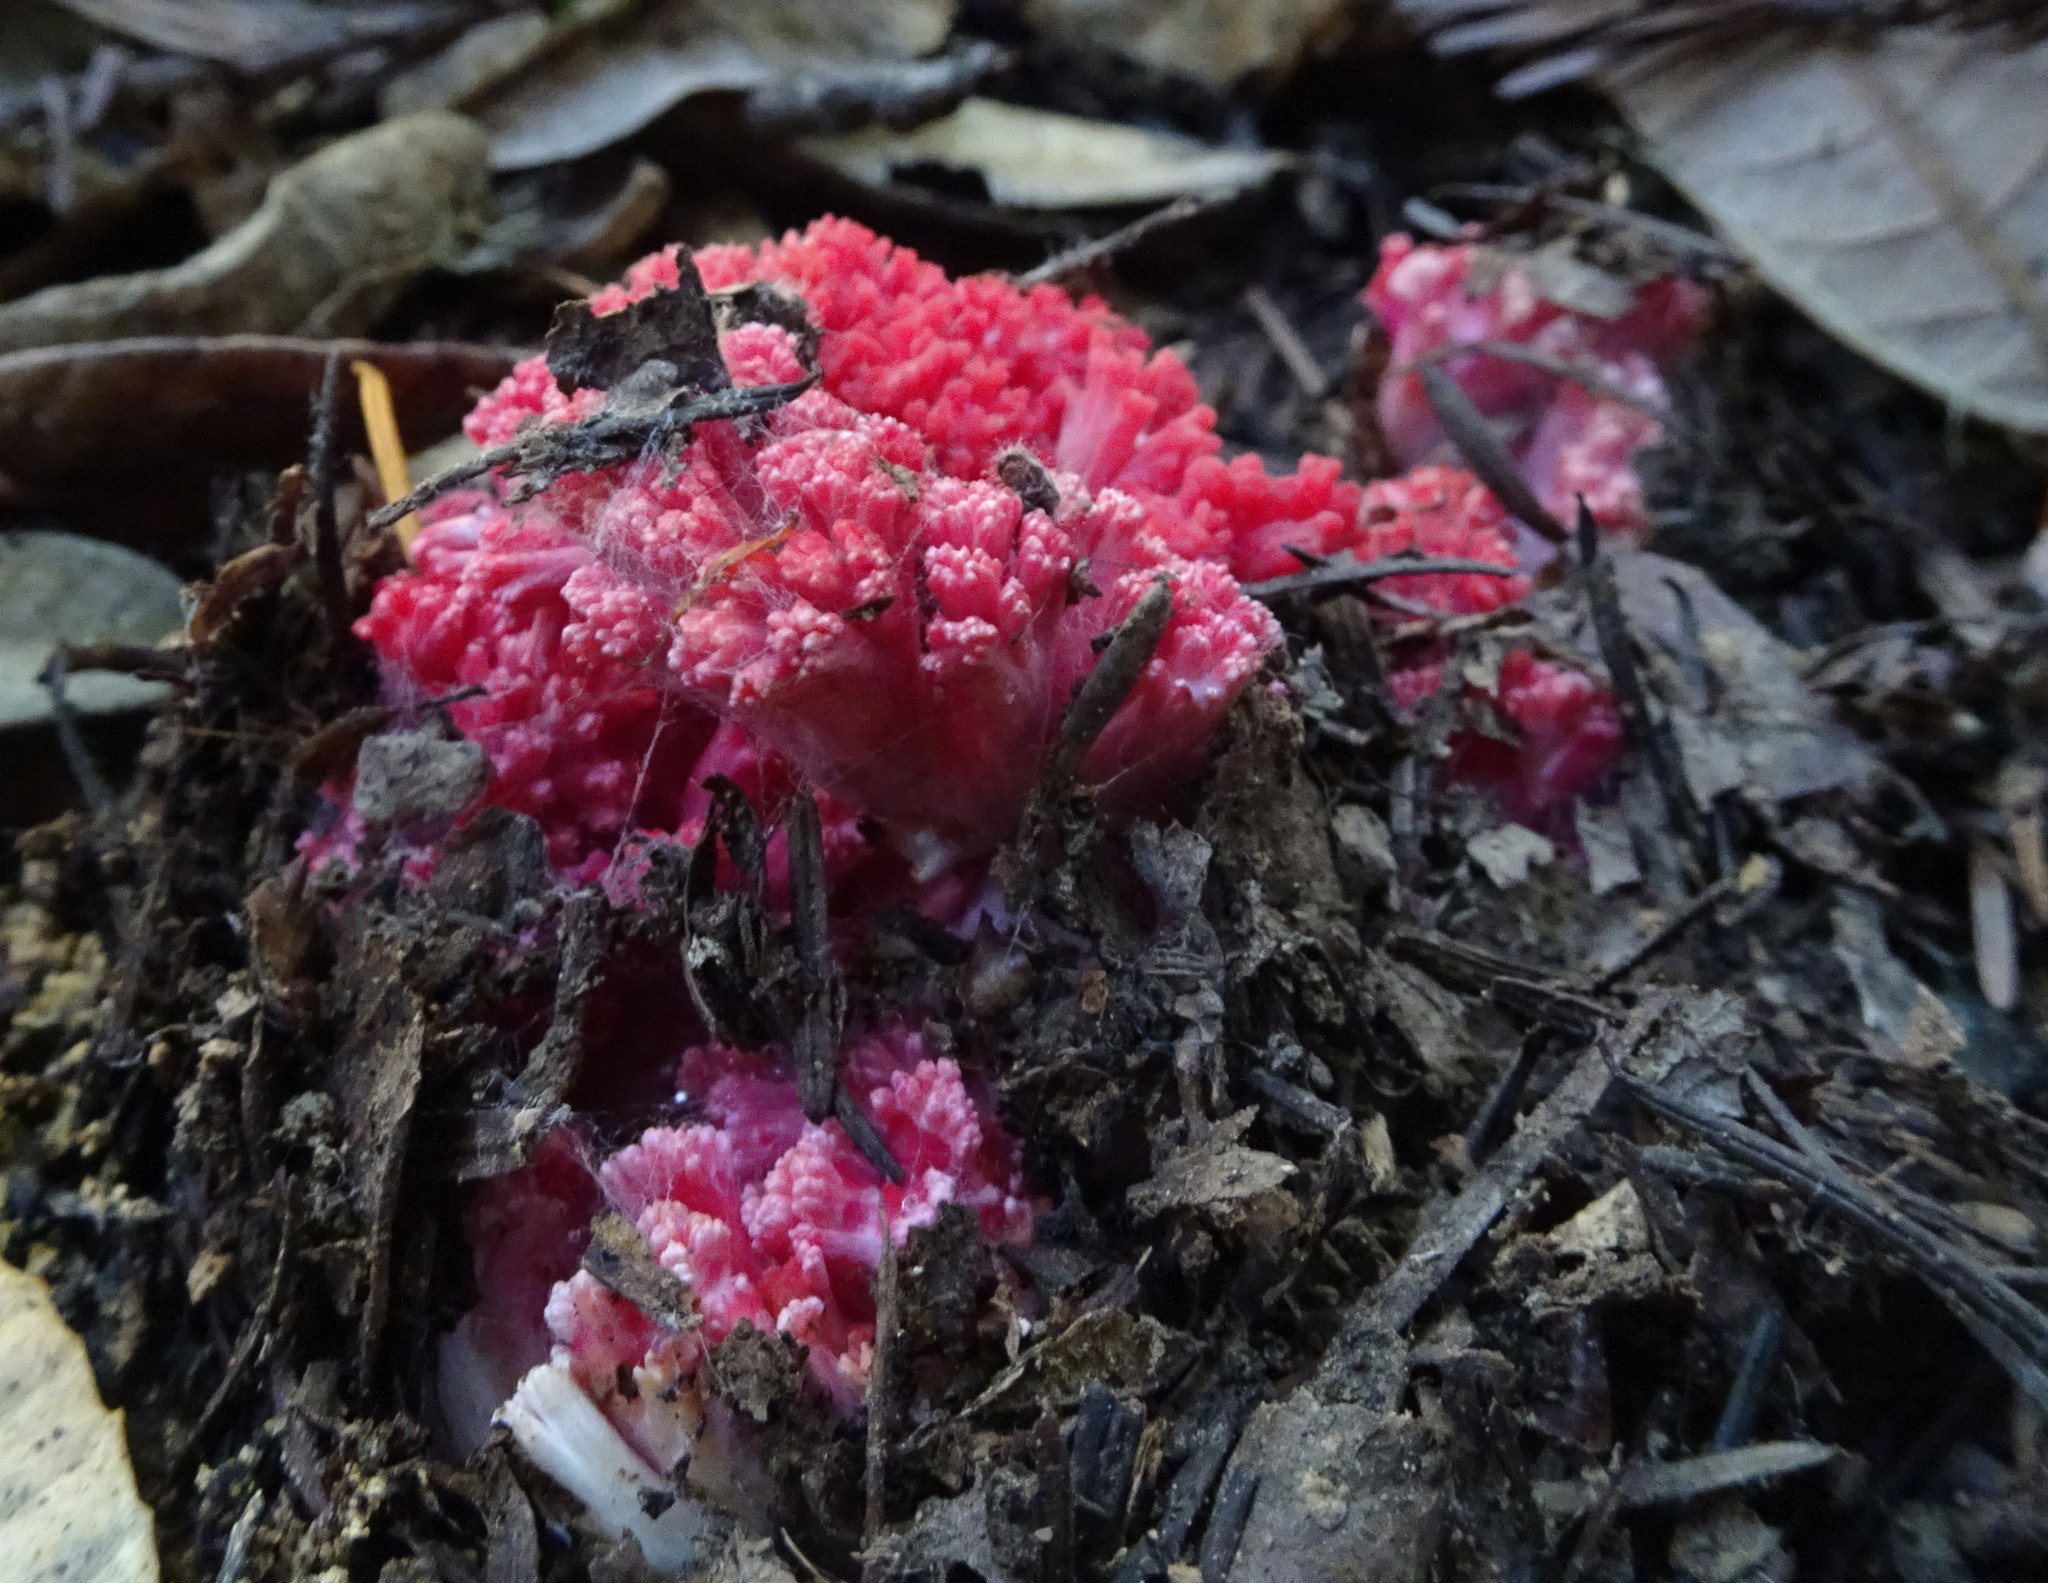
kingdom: Fungi
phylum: Basidiomycota
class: Agaricomycetes
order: Gomphales
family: Gomphaceae
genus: Ramaria
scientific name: Ramaria araiospora
